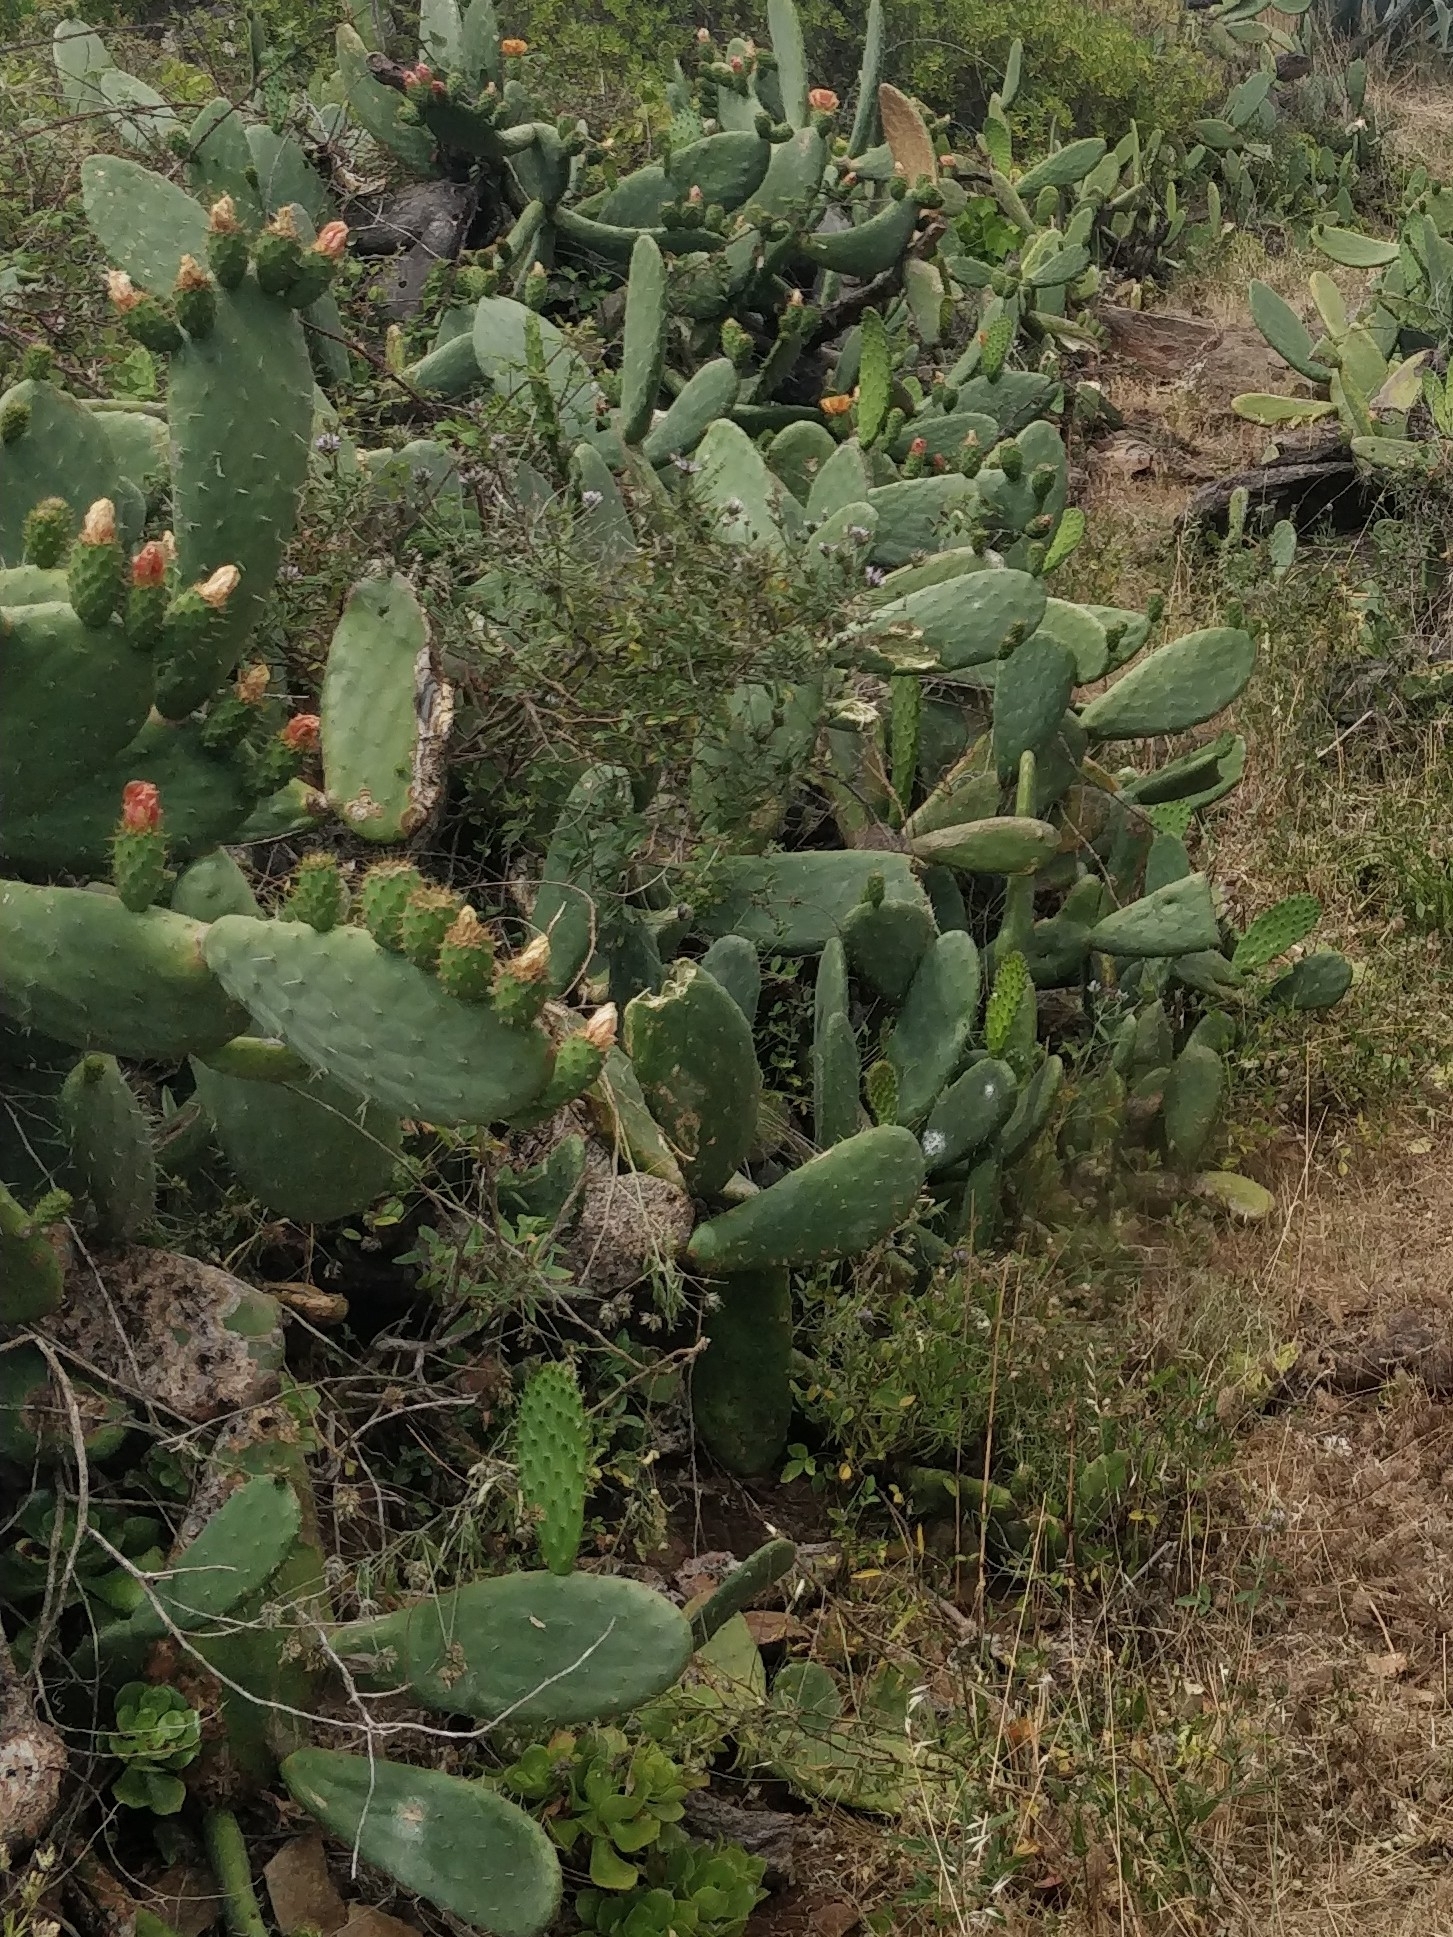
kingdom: Plantae
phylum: Tracheophyta
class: Magnoliopsida
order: Caryophyllales
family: Cactaceae
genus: Opuntia
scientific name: Opuntia ficus-indica
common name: Barbary fig
